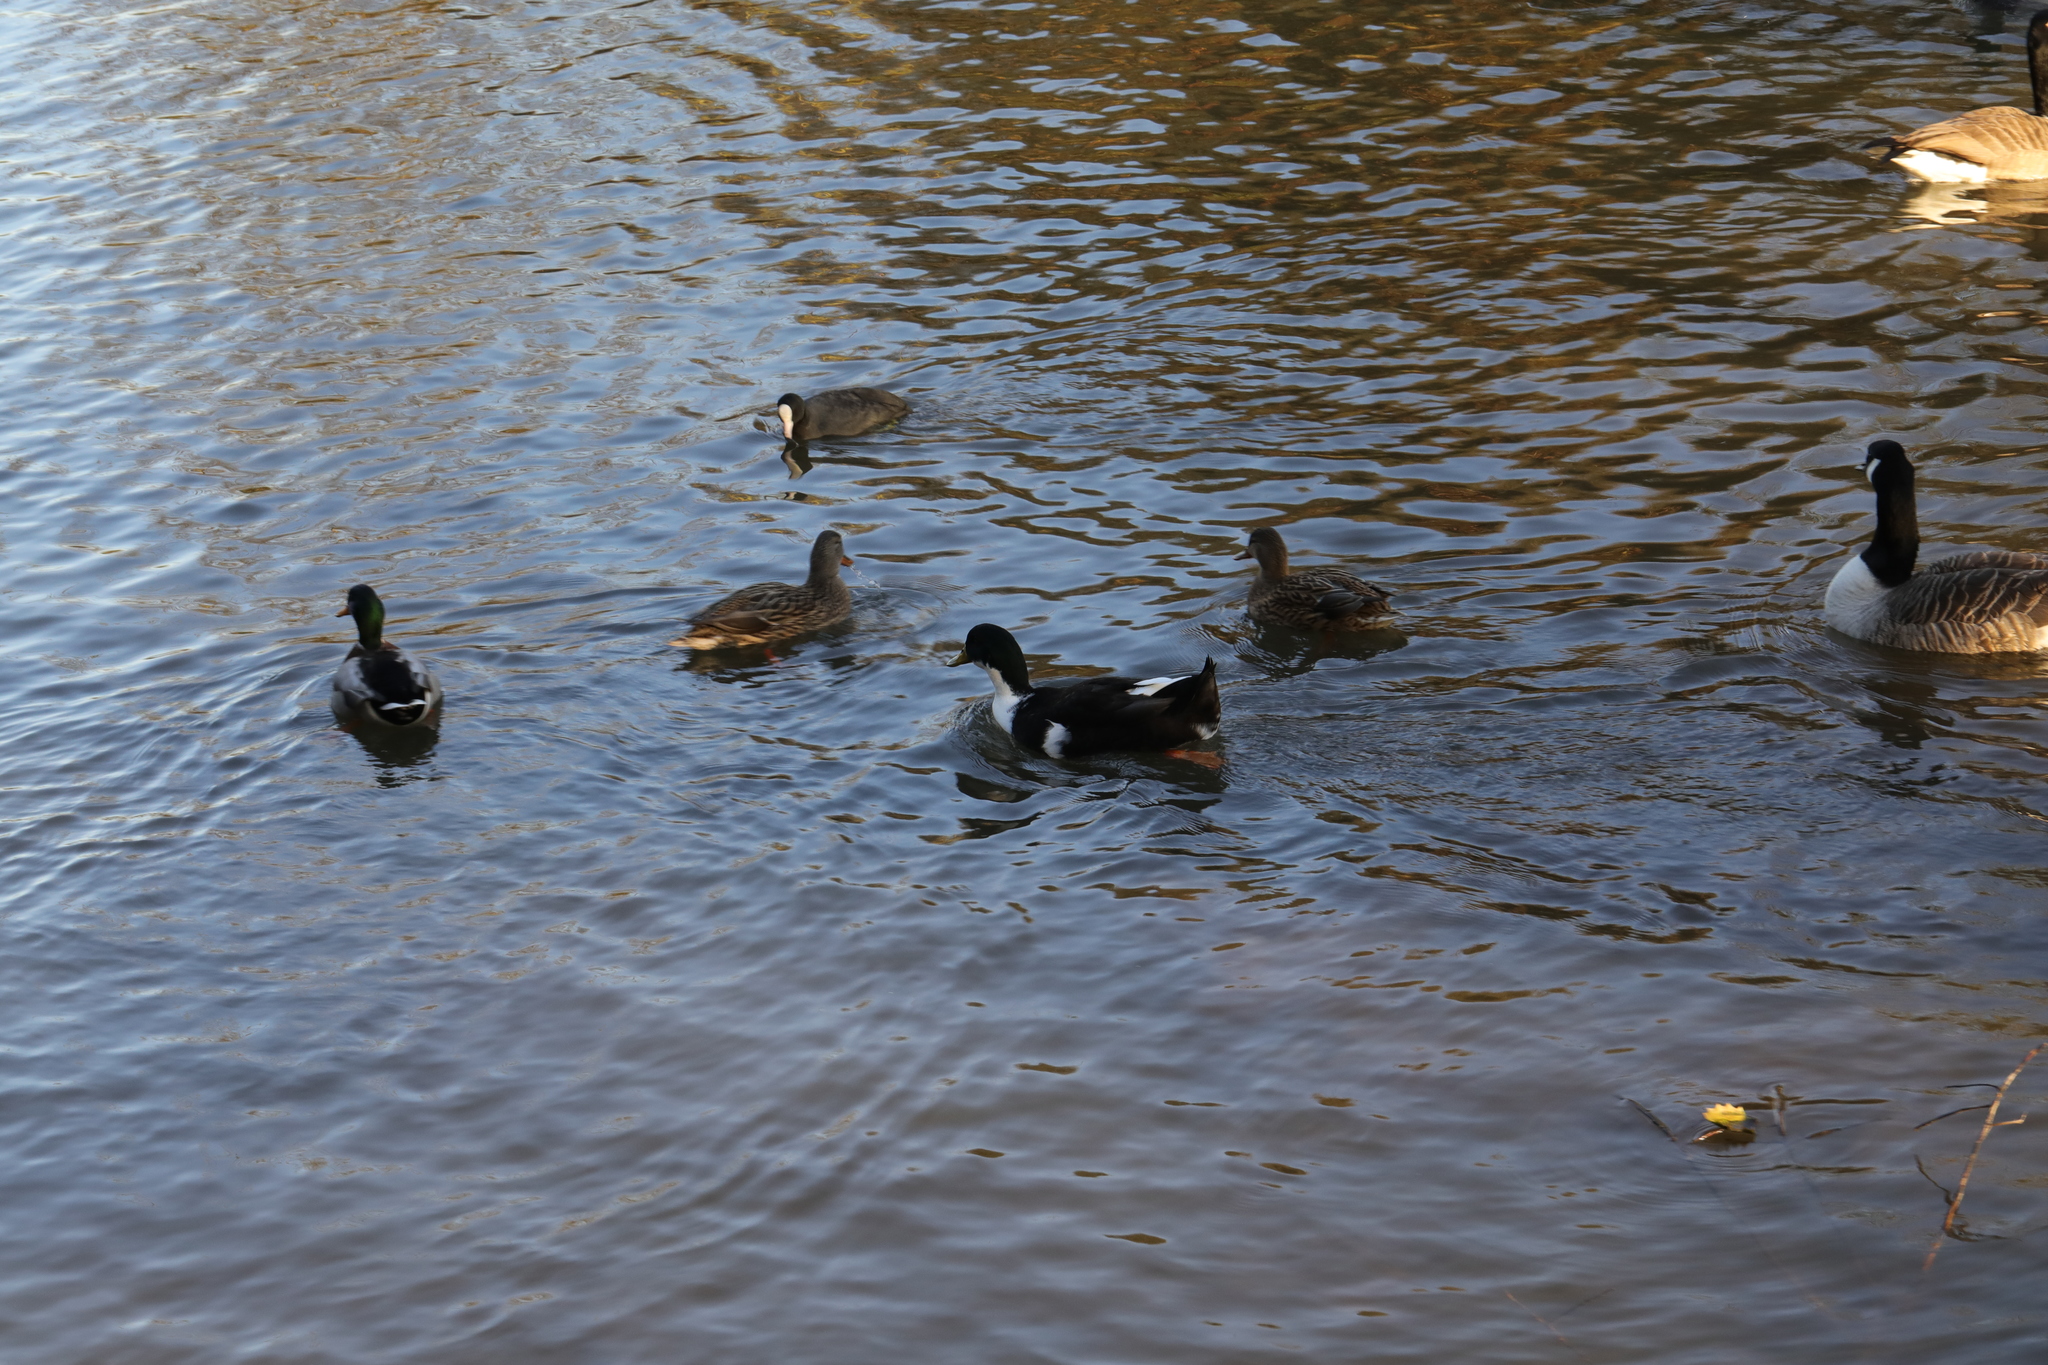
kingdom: Animalia
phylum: Chordata
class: Aves
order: Anseriformes
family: Anatidae
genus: Anas
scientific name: Anas platyrhynchos
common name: Mallard
